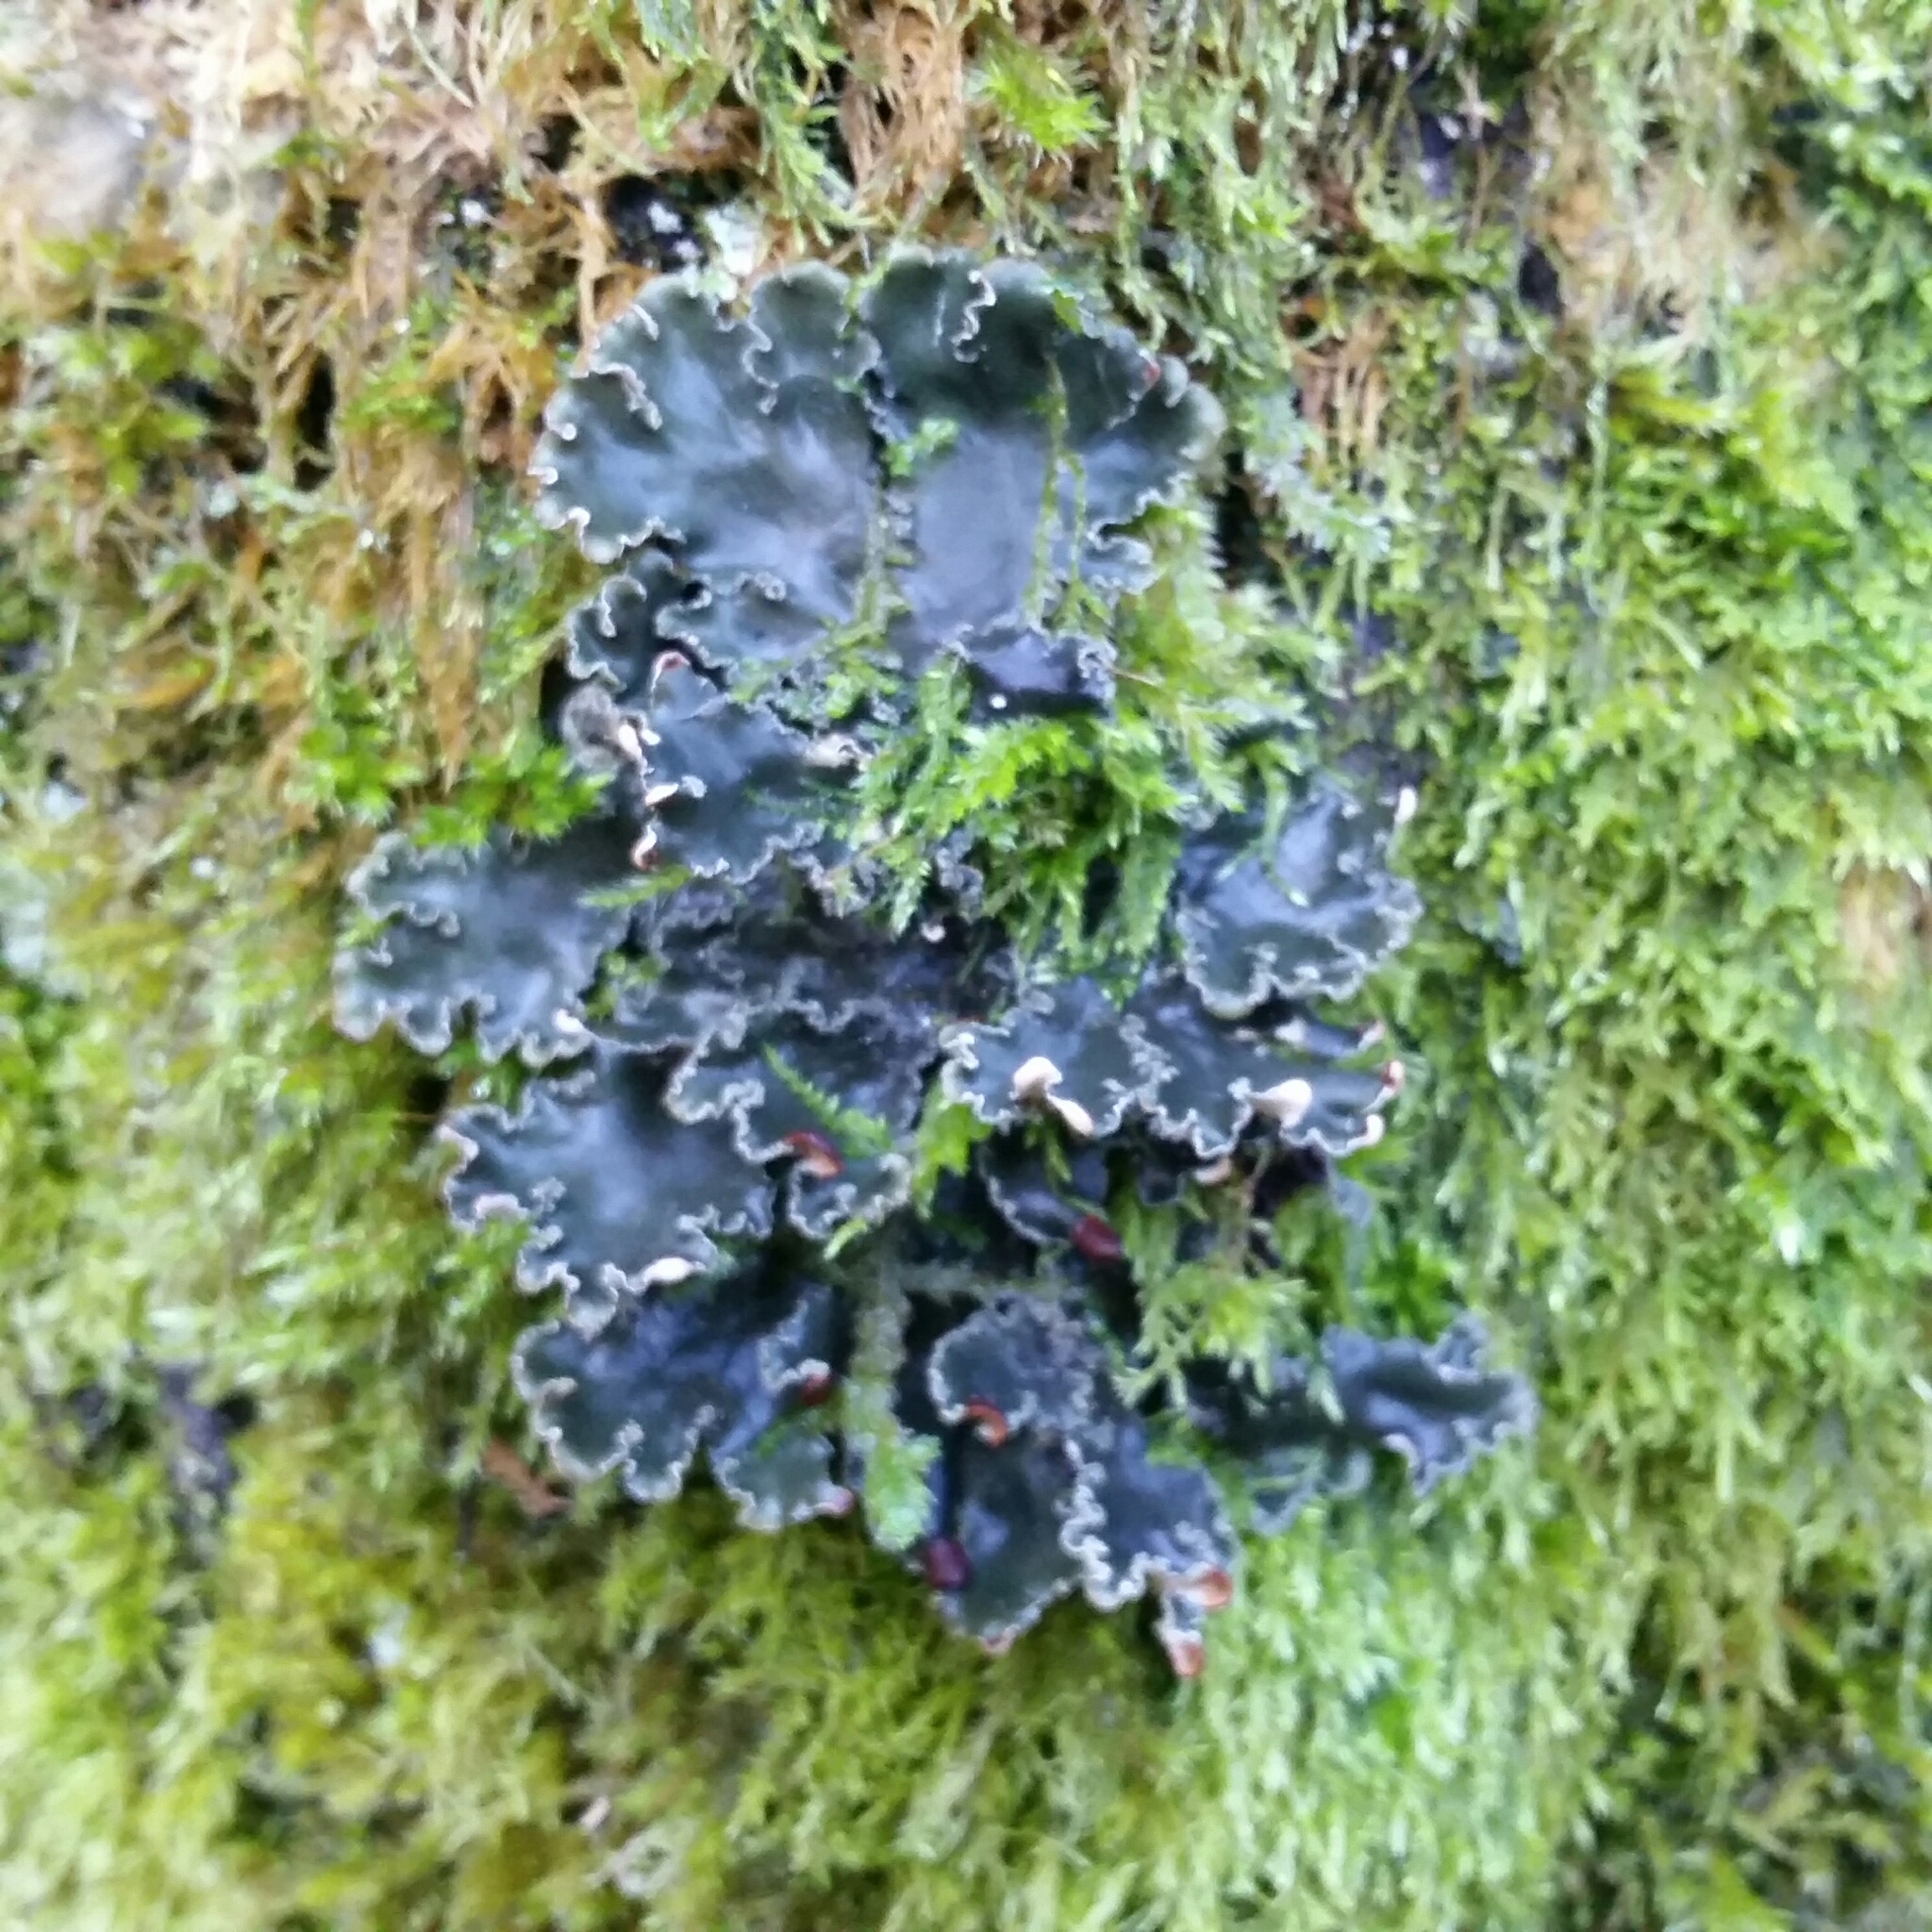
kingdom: Fungi
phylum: Ascomycota
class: Lecanoromycetes
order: Peltigerales
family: Peltigeraceae
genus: Peltigera
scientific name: Peltigera collina
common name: Gritty tree pelt lichen
